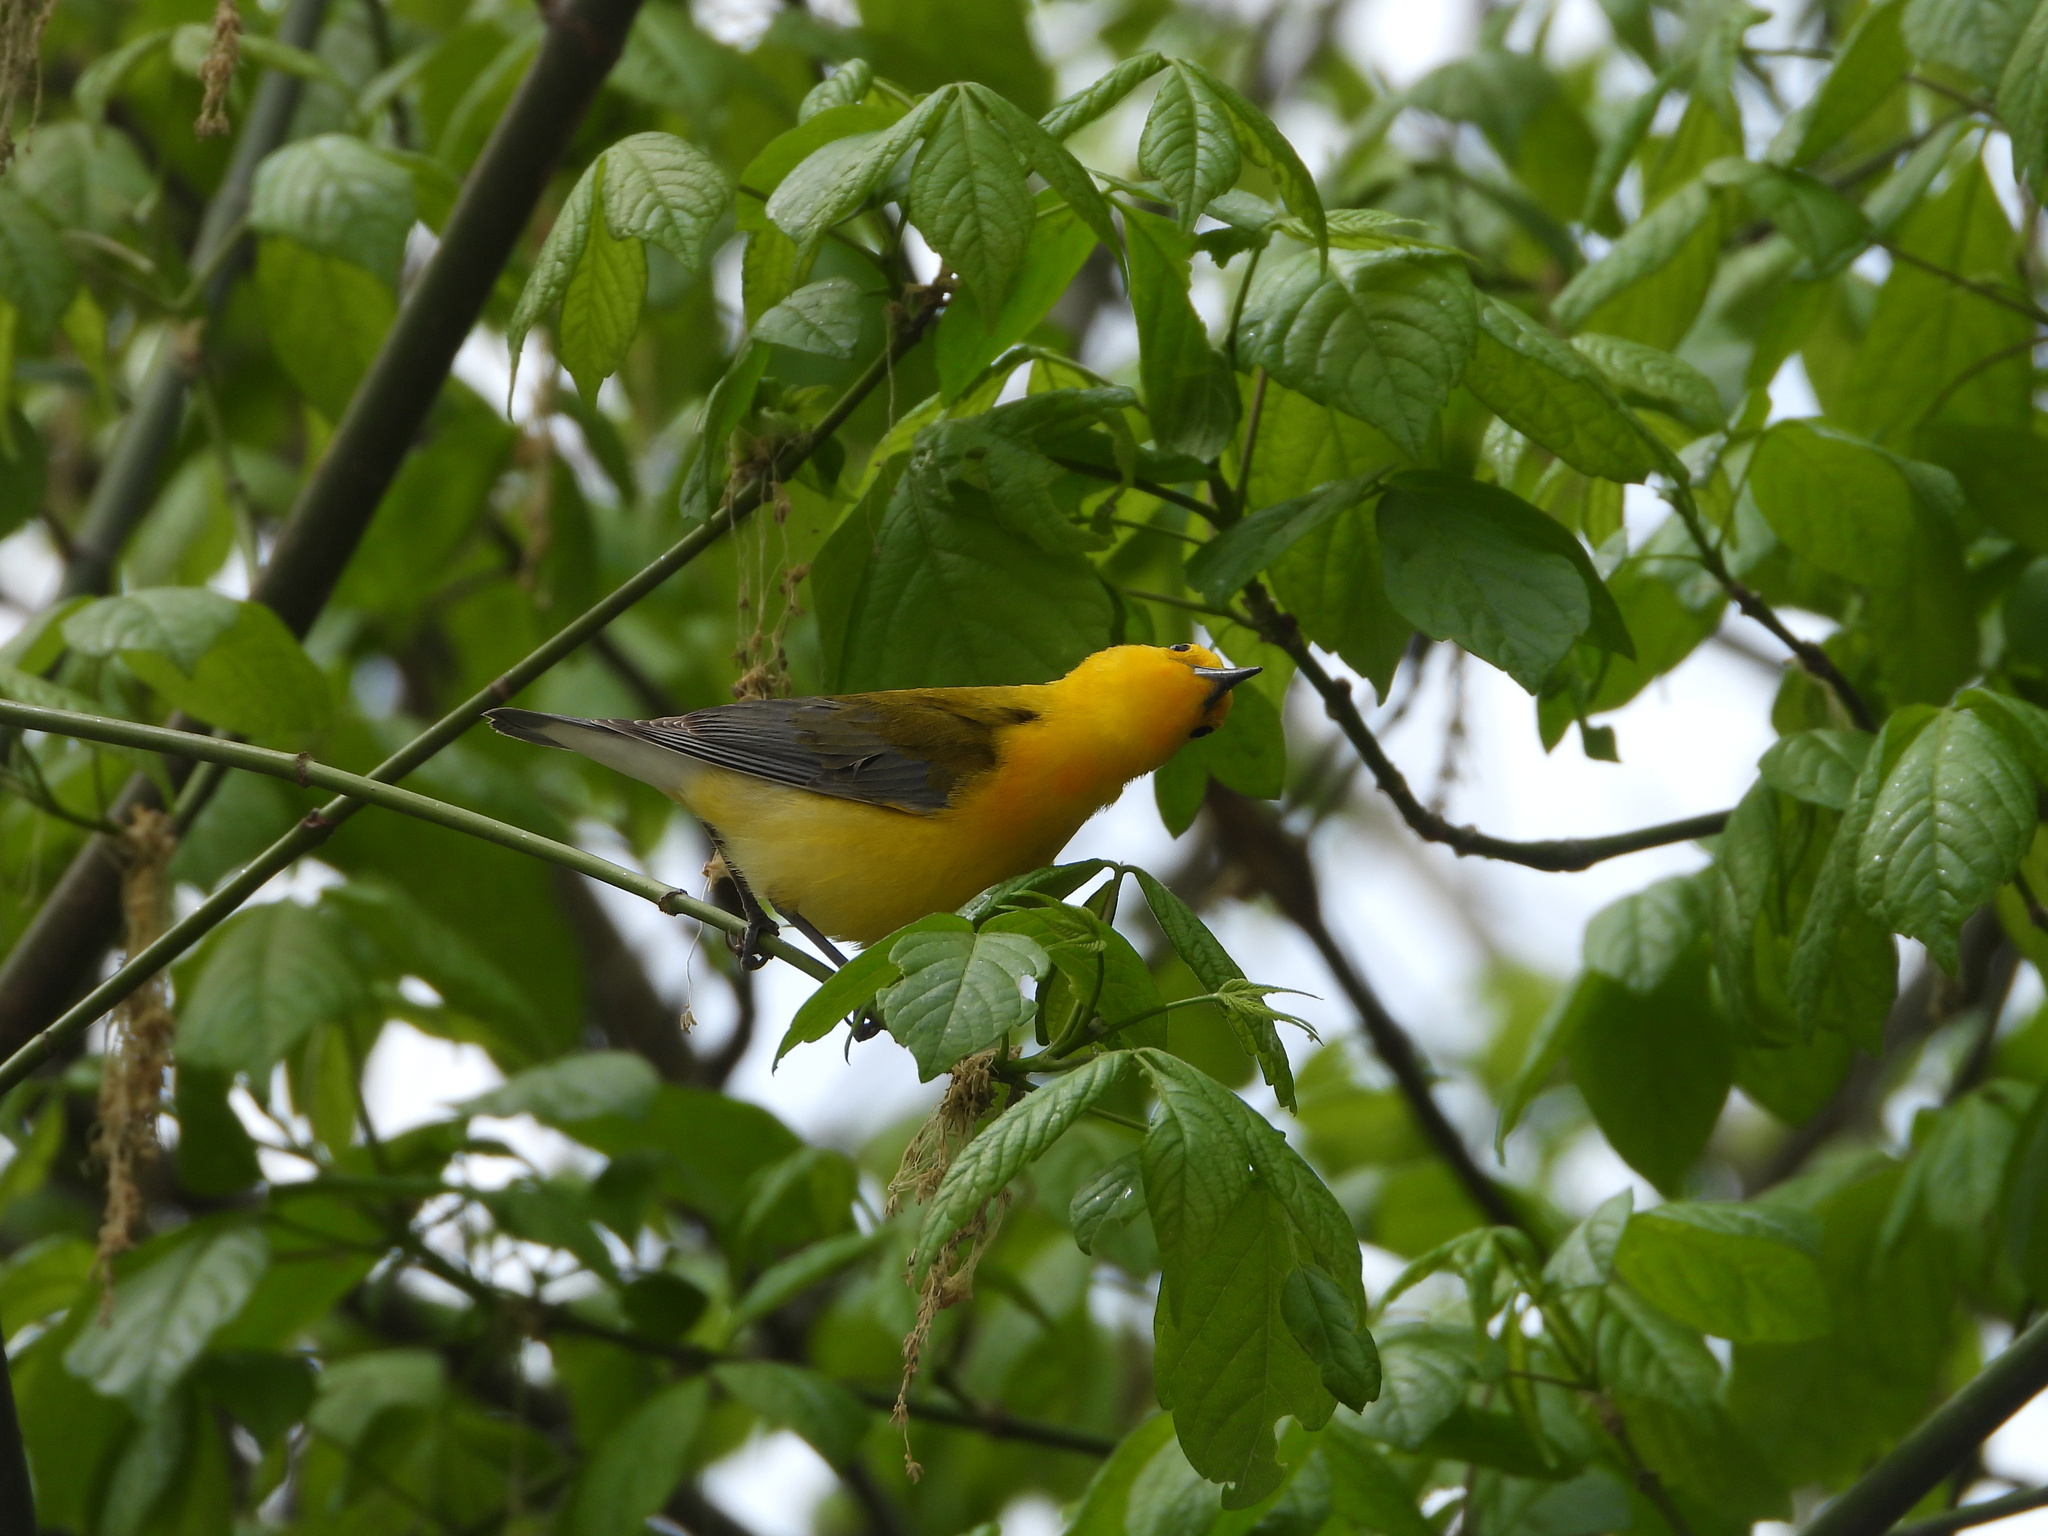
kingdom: Animalia
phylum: Chordata
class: Aves
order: Passeriformes
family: Parulidae
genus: Protonotaria
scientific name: Protonotaria citrea
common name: Prothonotary warbler
